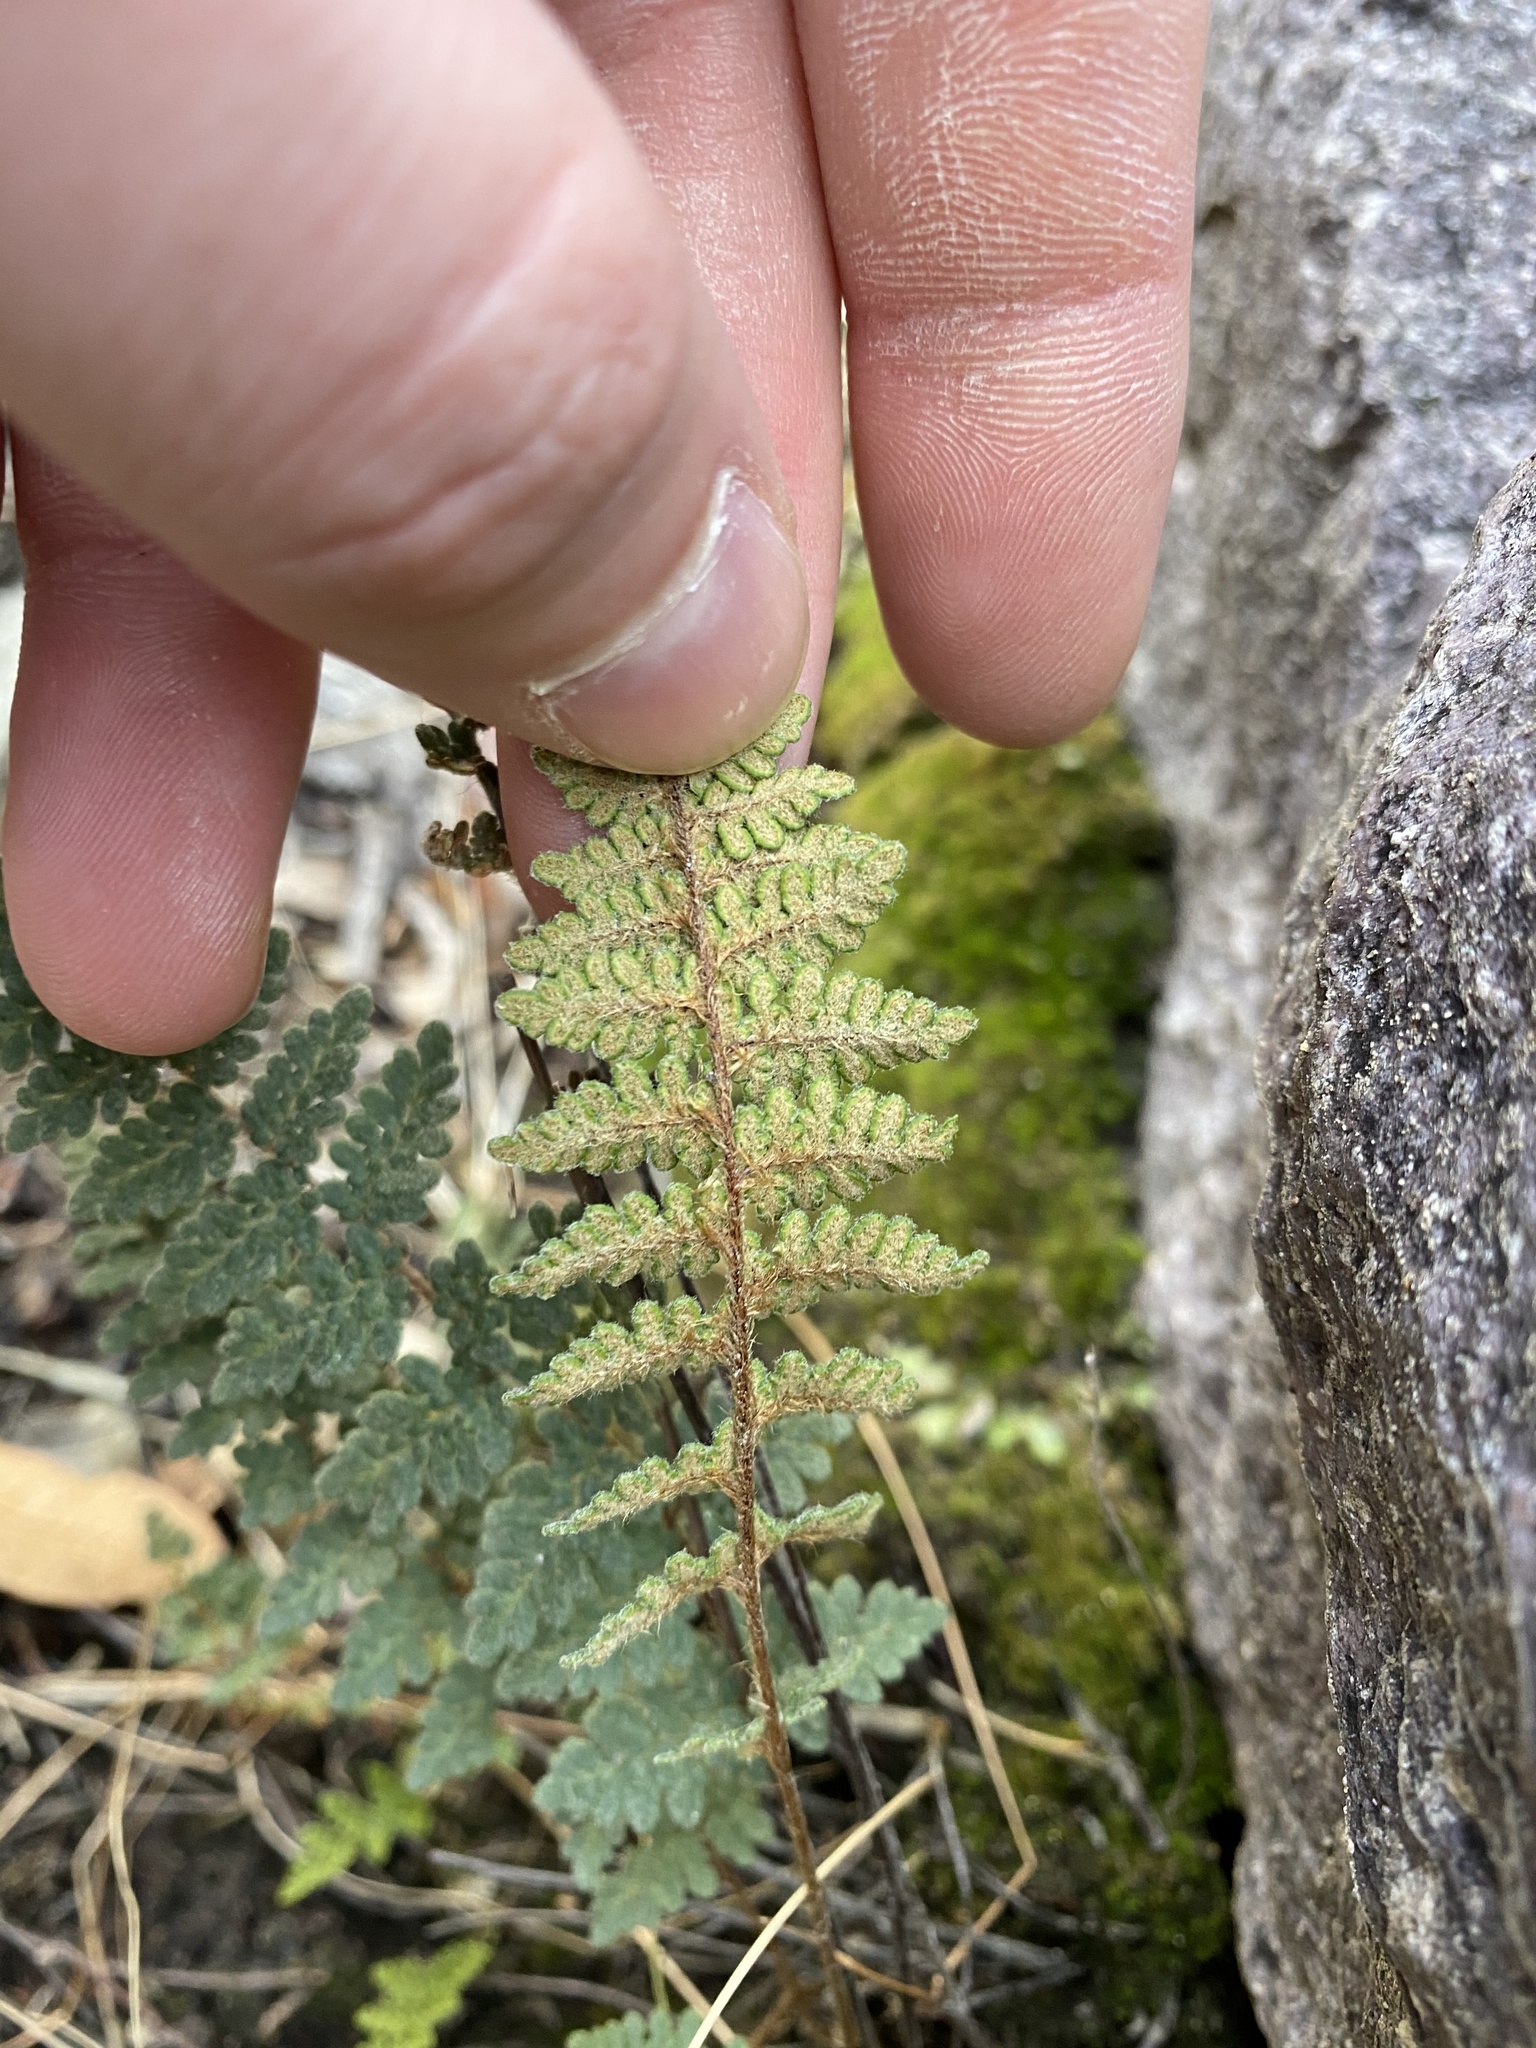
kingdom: Plantae
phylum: Tracheophyta
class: Polypodiopsida
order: Polypodiales
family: Pteridaceae
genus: Myriopteris
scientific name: Myriopteris rufa
